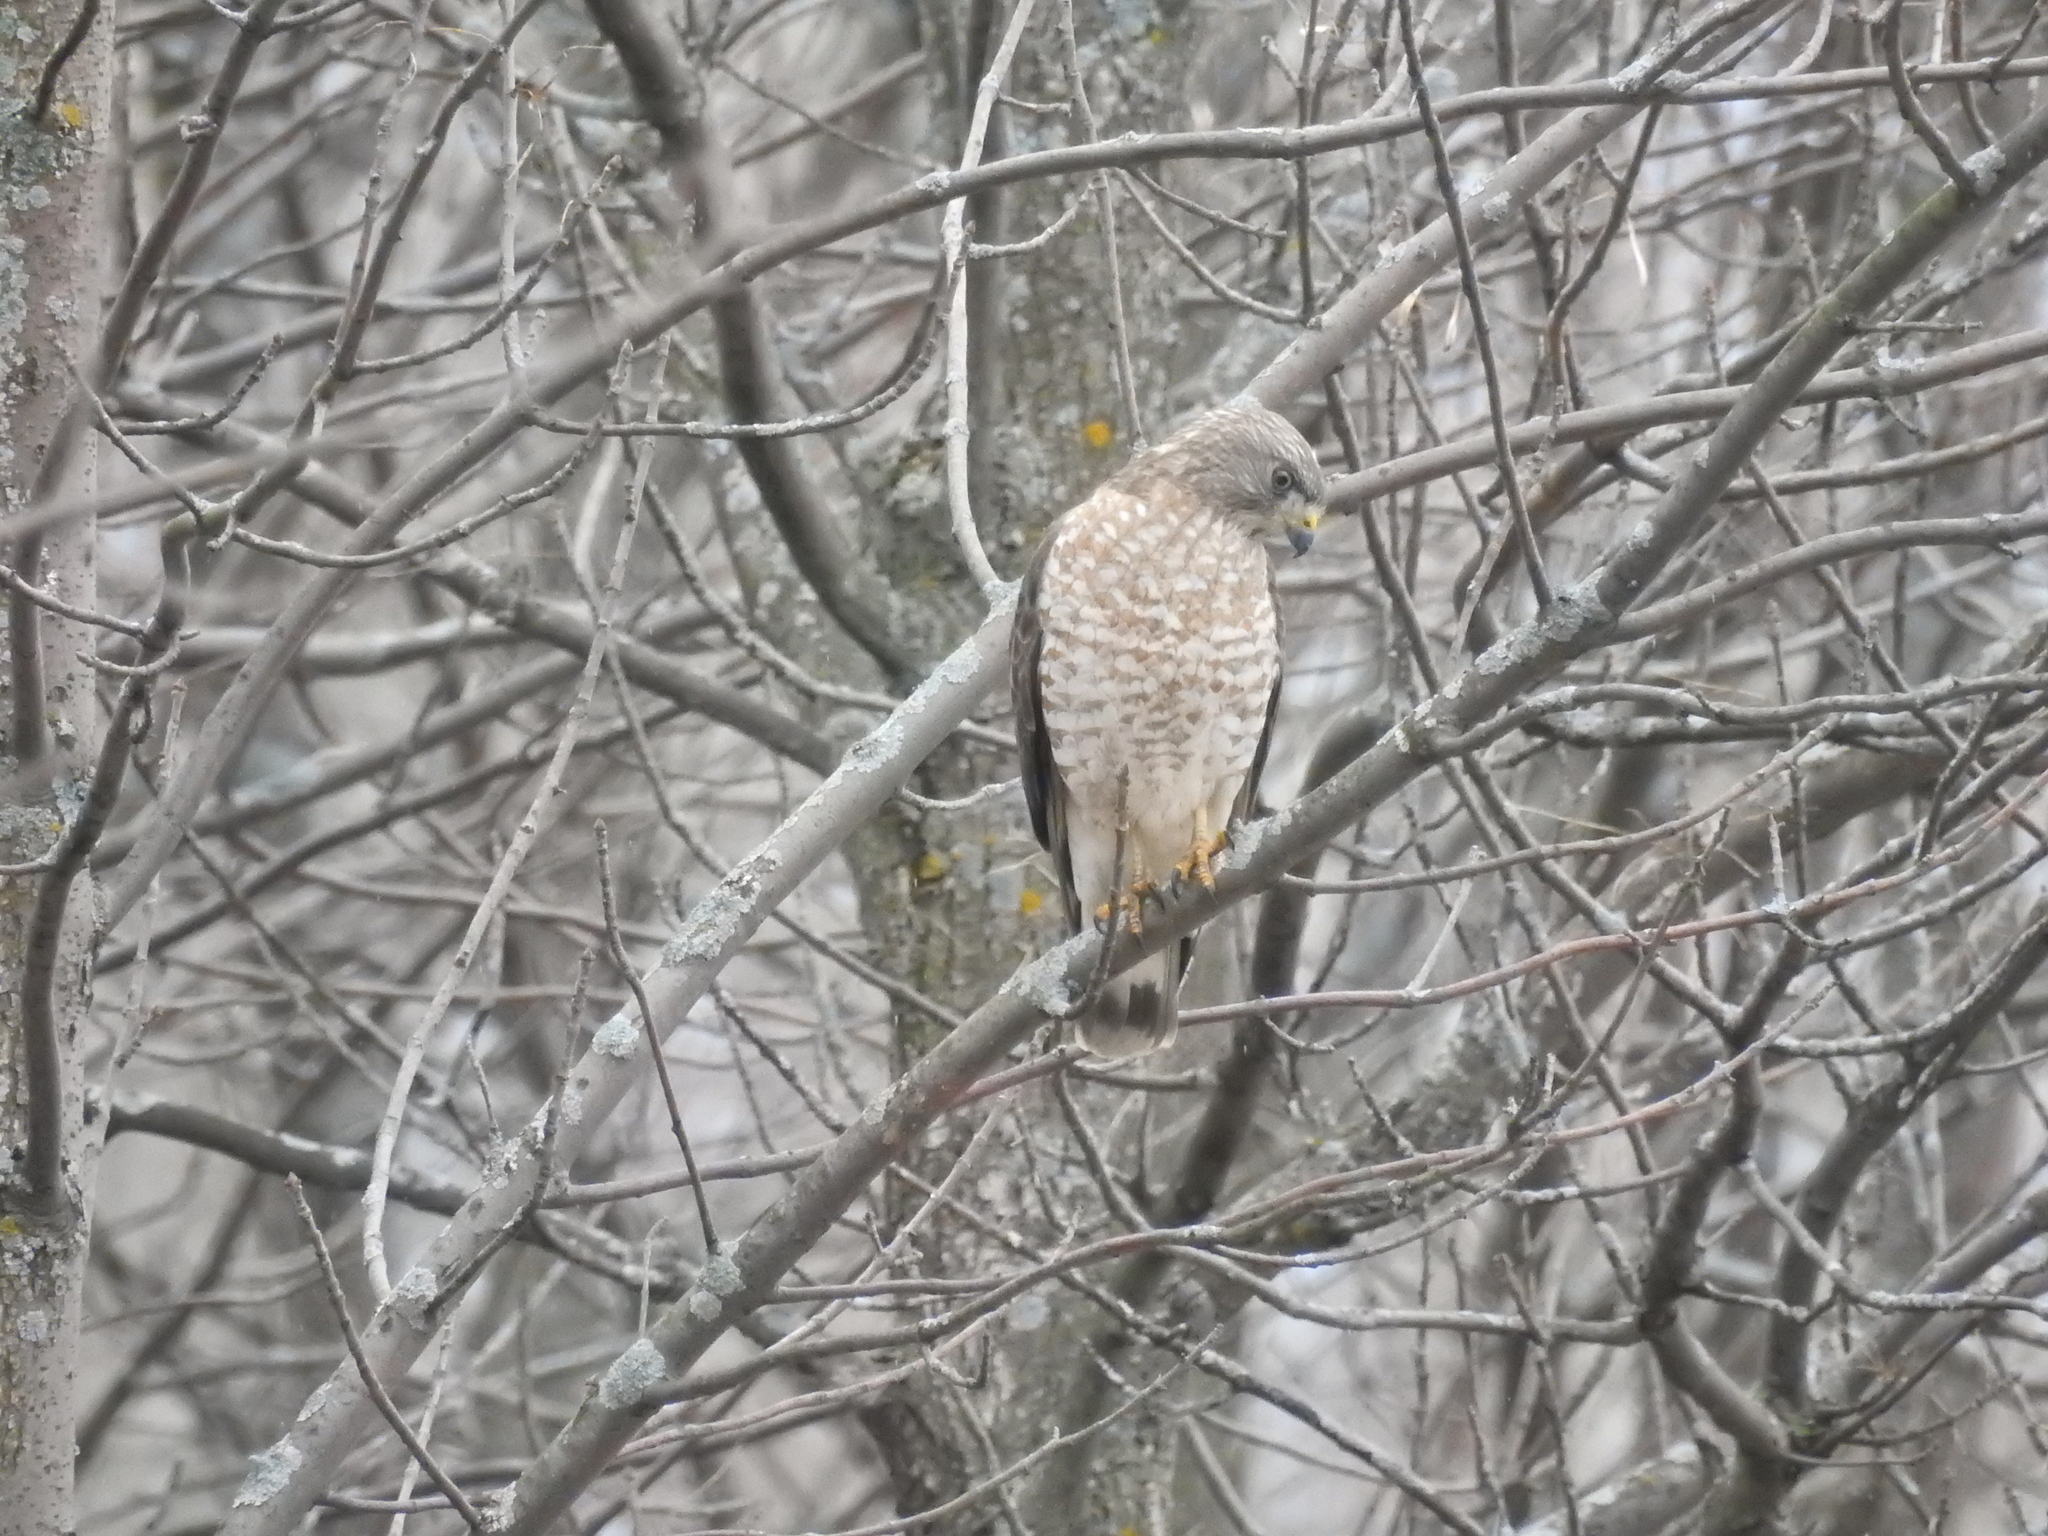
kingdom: Animalia
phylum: Chordata
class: Aves
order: Accipitriformes
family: Accipitridae
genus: Buteo
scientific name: Buteo platypterus
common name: Broad-winged hawk
